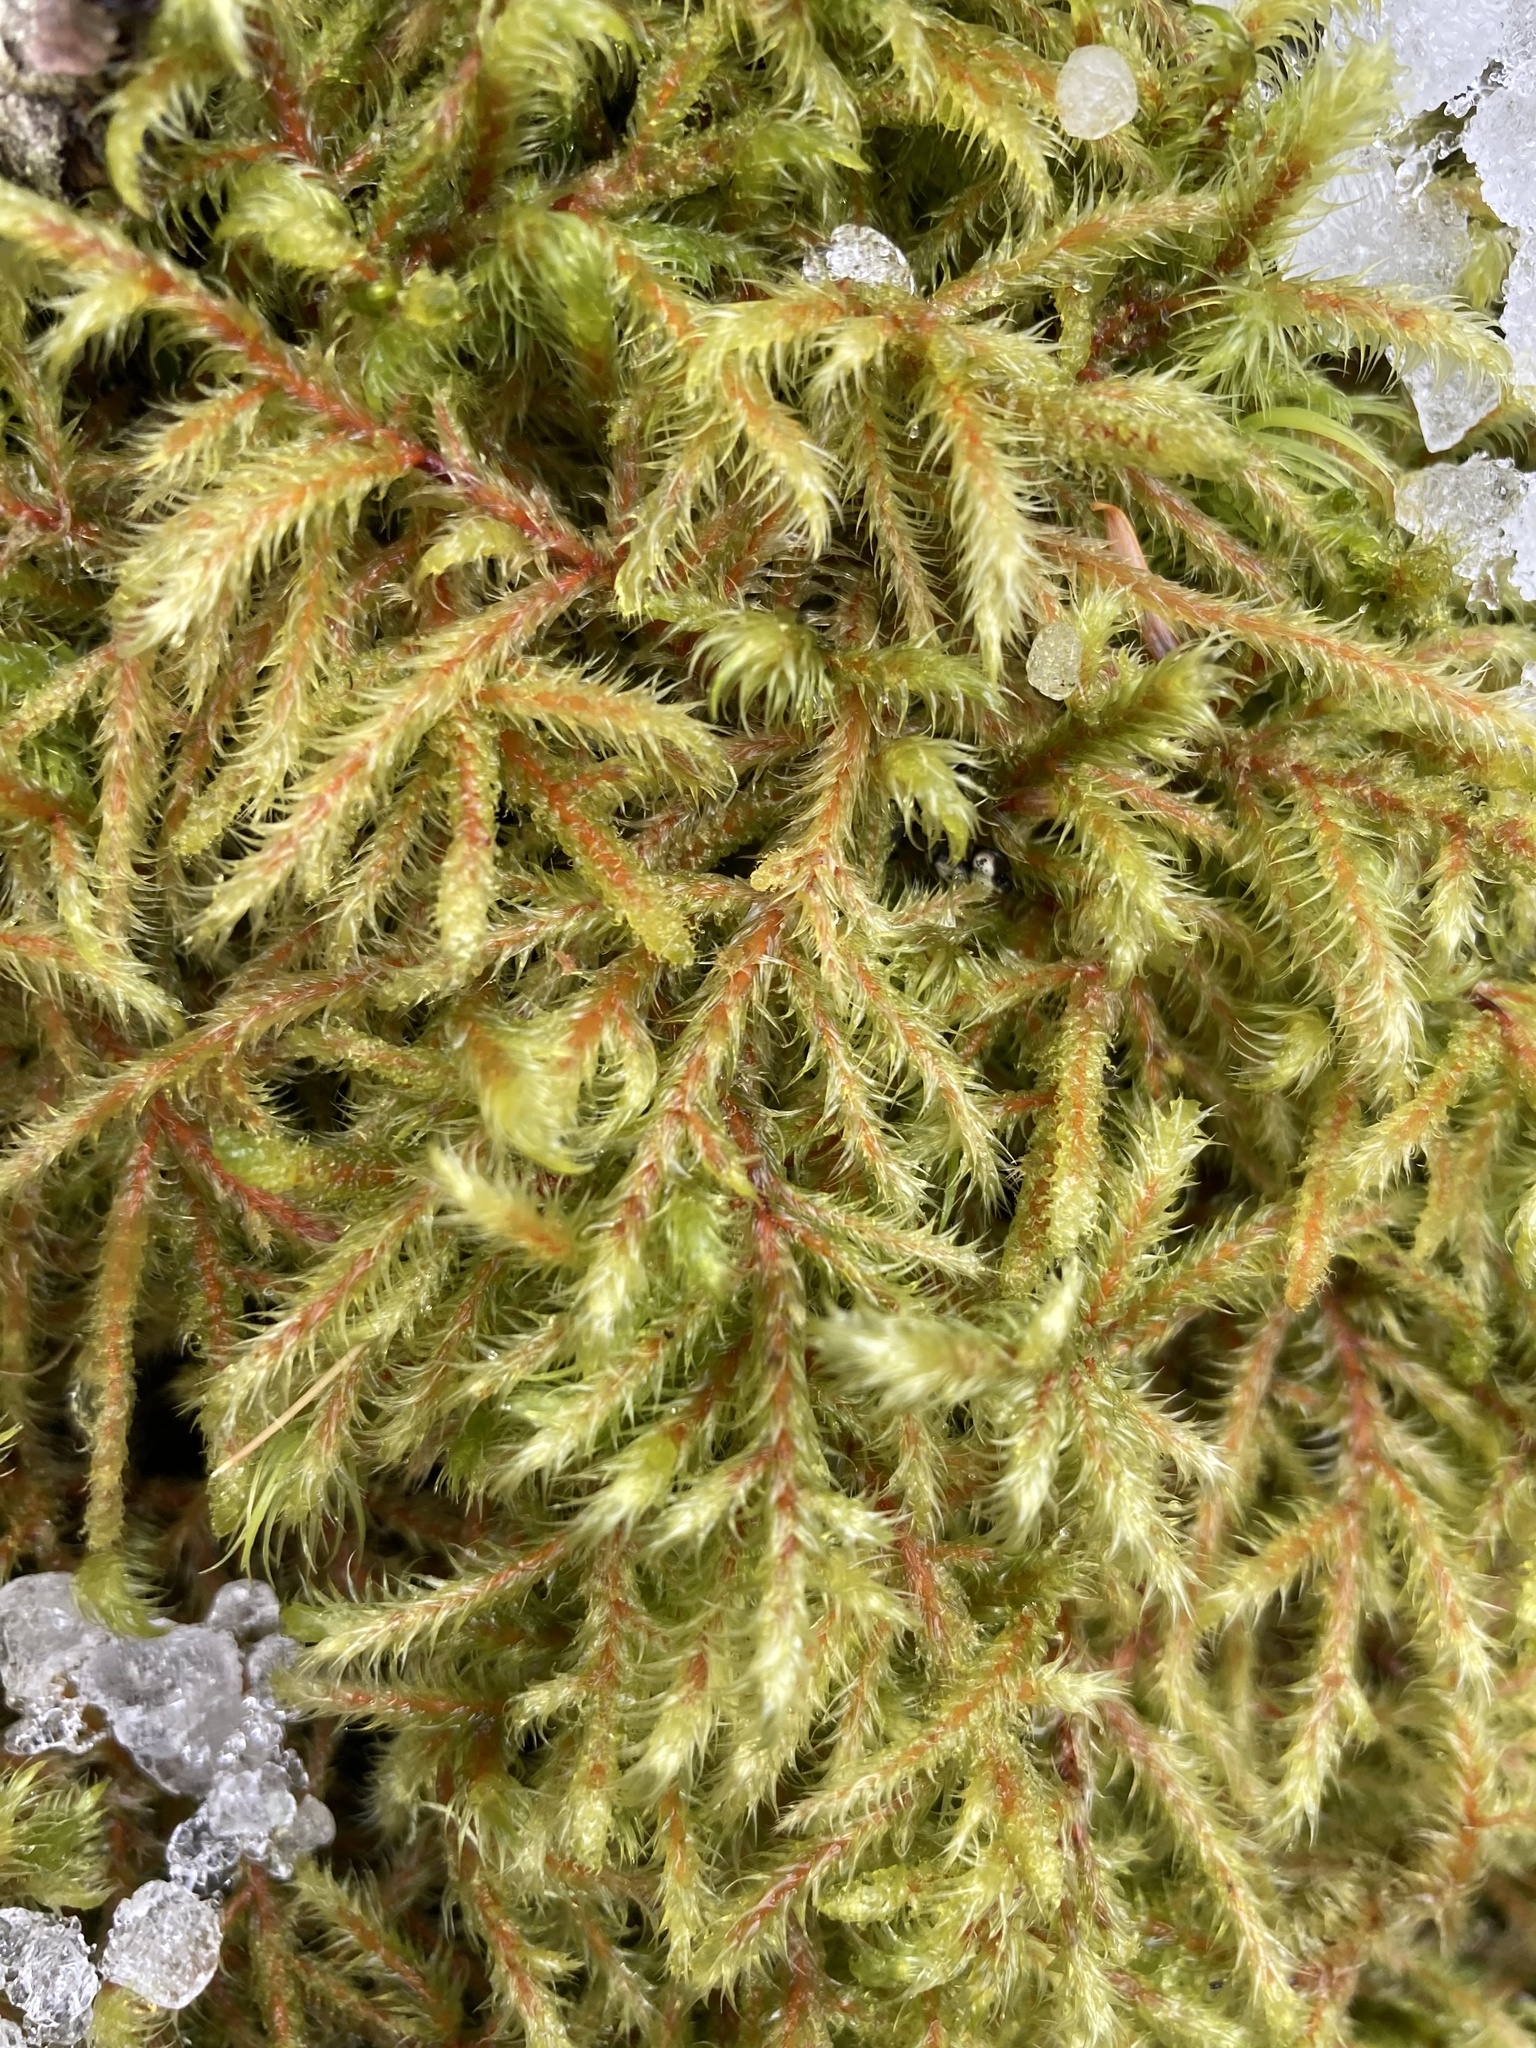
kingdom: Plantae
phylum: Bryophyta
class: Bryopsida
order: Hypnales
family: Hylocomiaceae
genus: Rhytidiadelphus
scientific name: Rhytidiadelphus loreus
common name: Lanky moss
